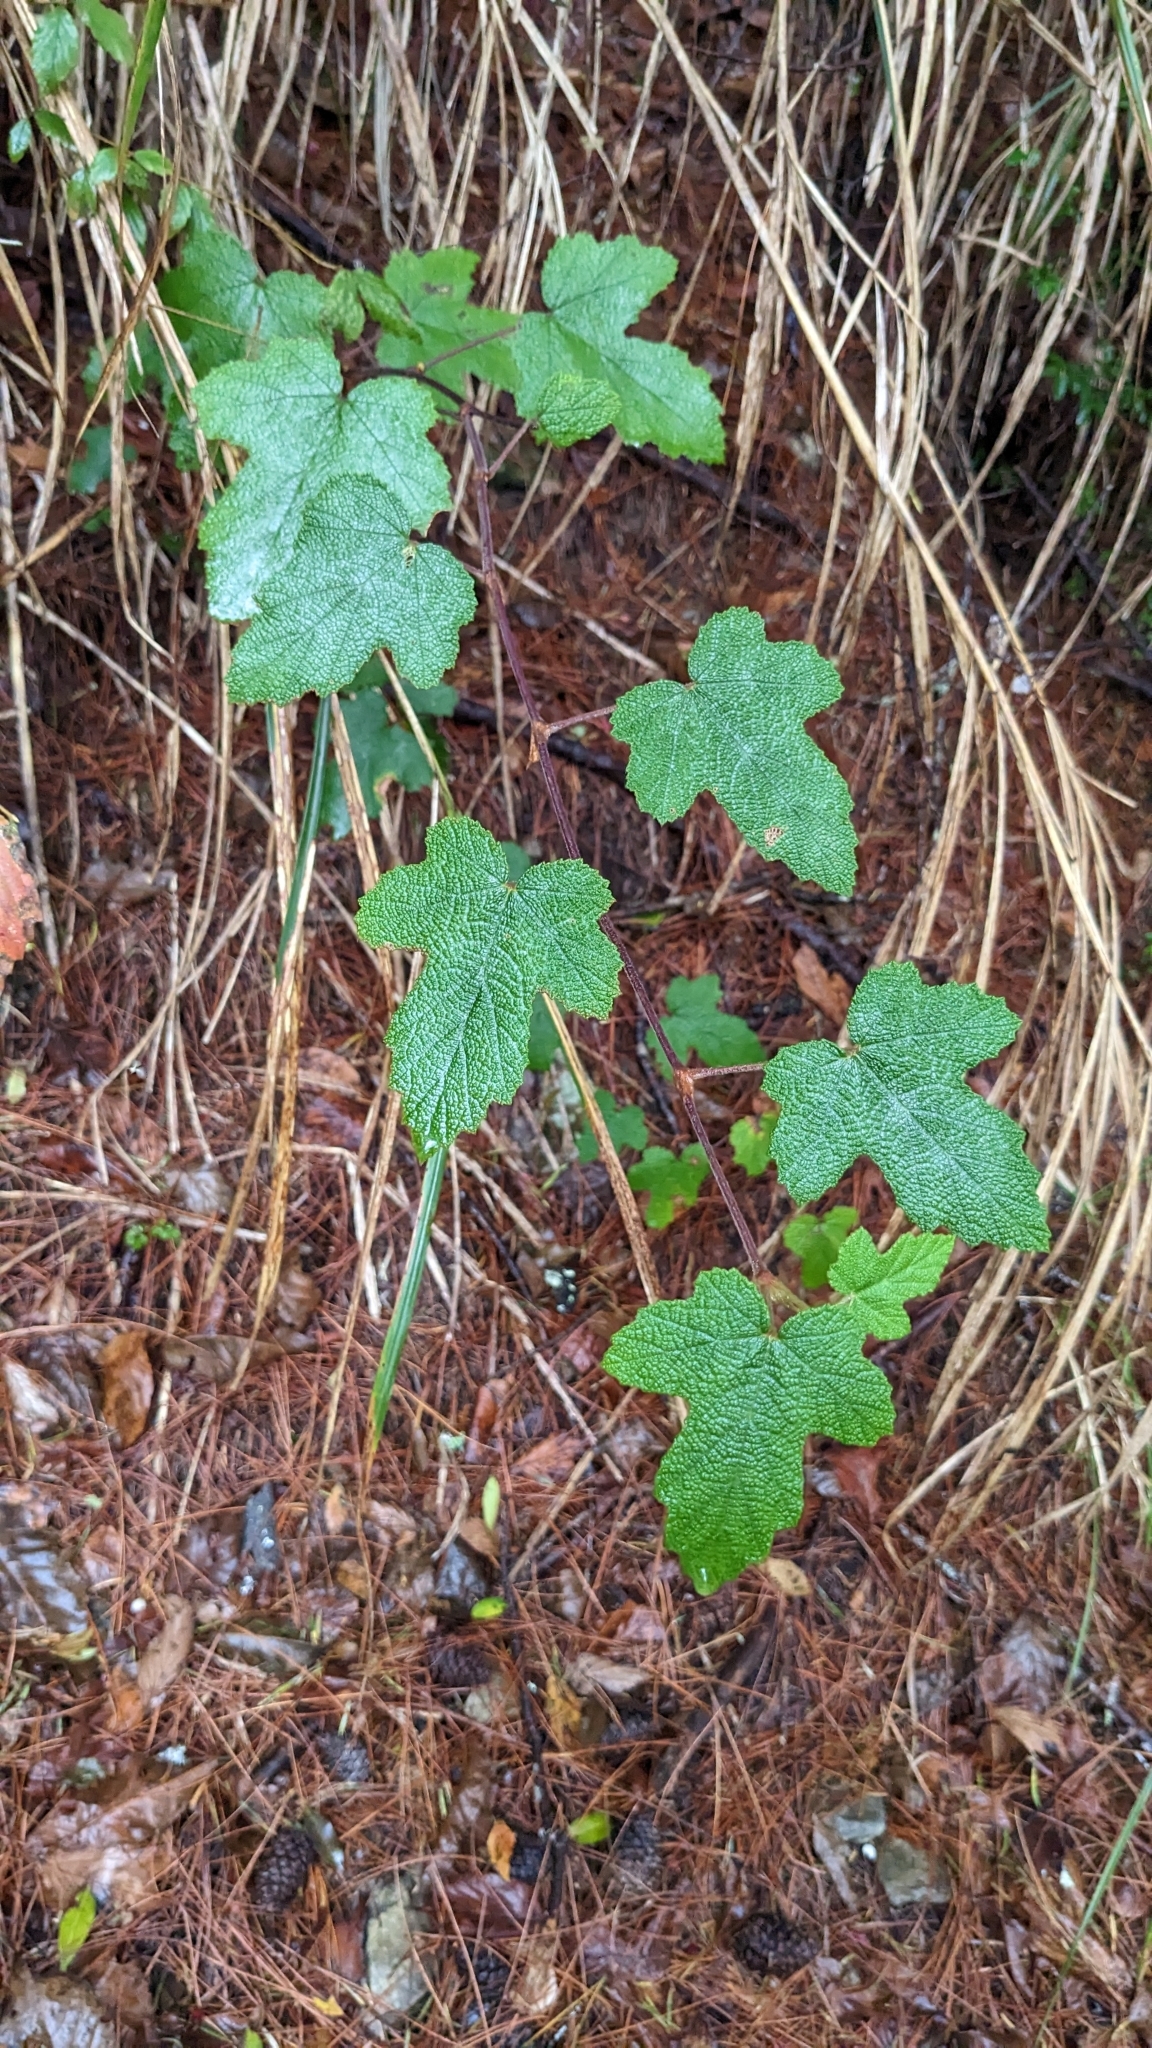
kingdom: Plantae
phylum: Tracheophyta
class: Magnoliopsida
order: Rosales
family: Rosaceae
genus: Rubus
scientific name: Rubus formosensis
